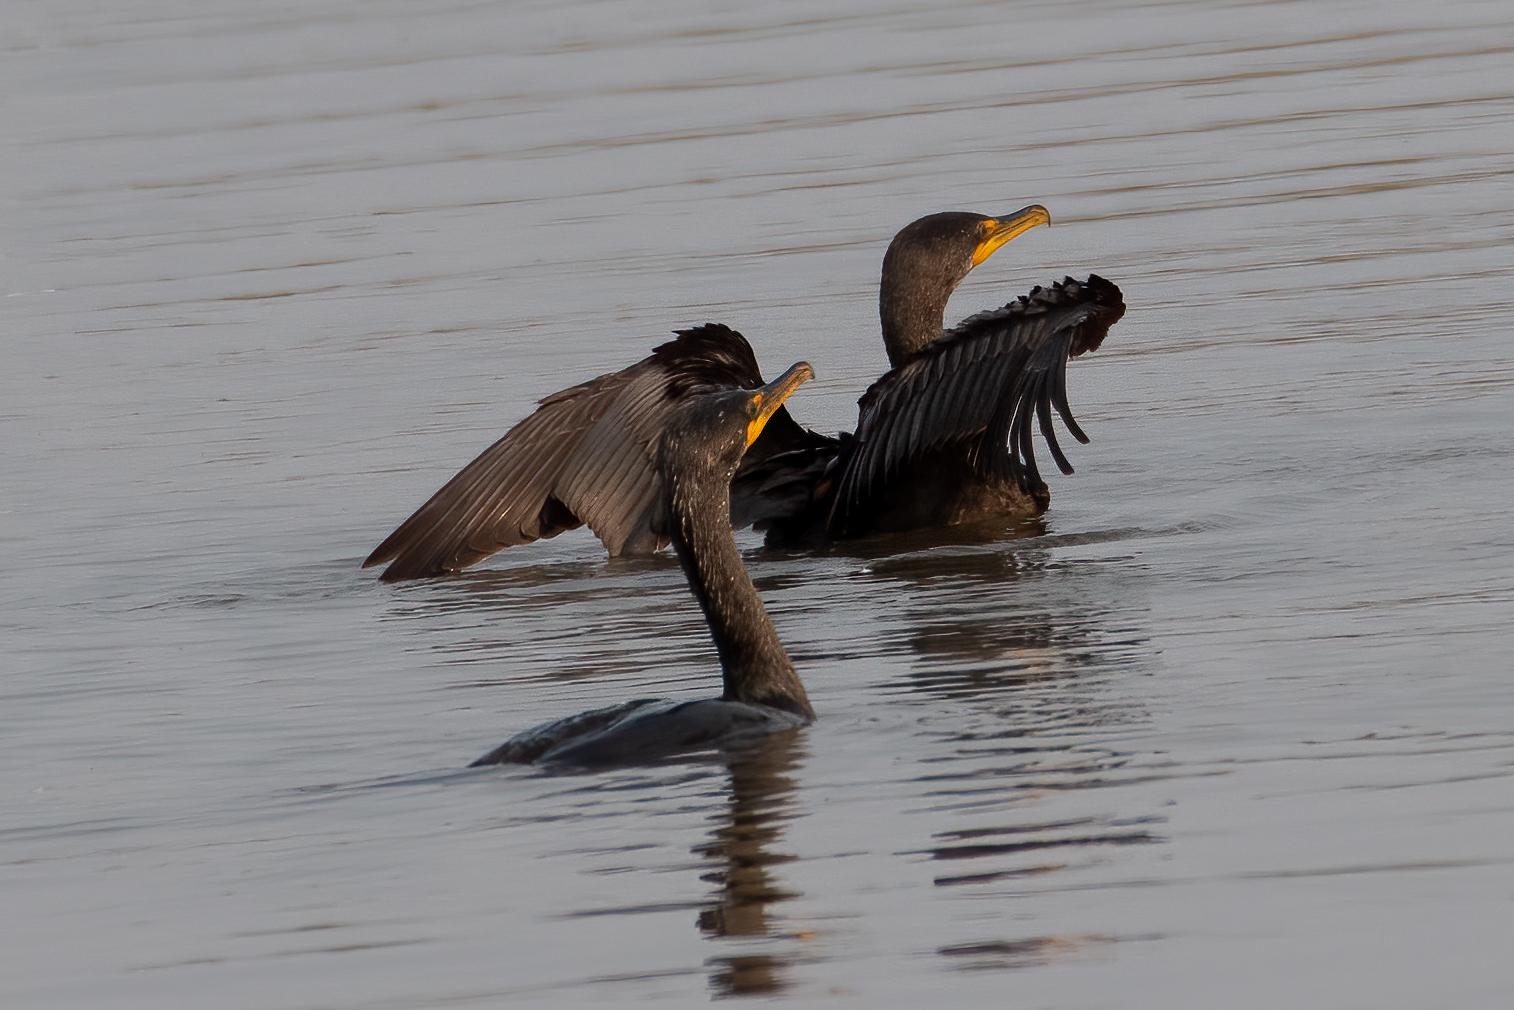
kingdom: Animalia
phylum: Chordata
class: Aves
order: Suliformes
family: Phalacrocoracidae
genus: Phalacrocorax
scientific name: Phalacrocorax auritus
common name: Double-crested cormorant
